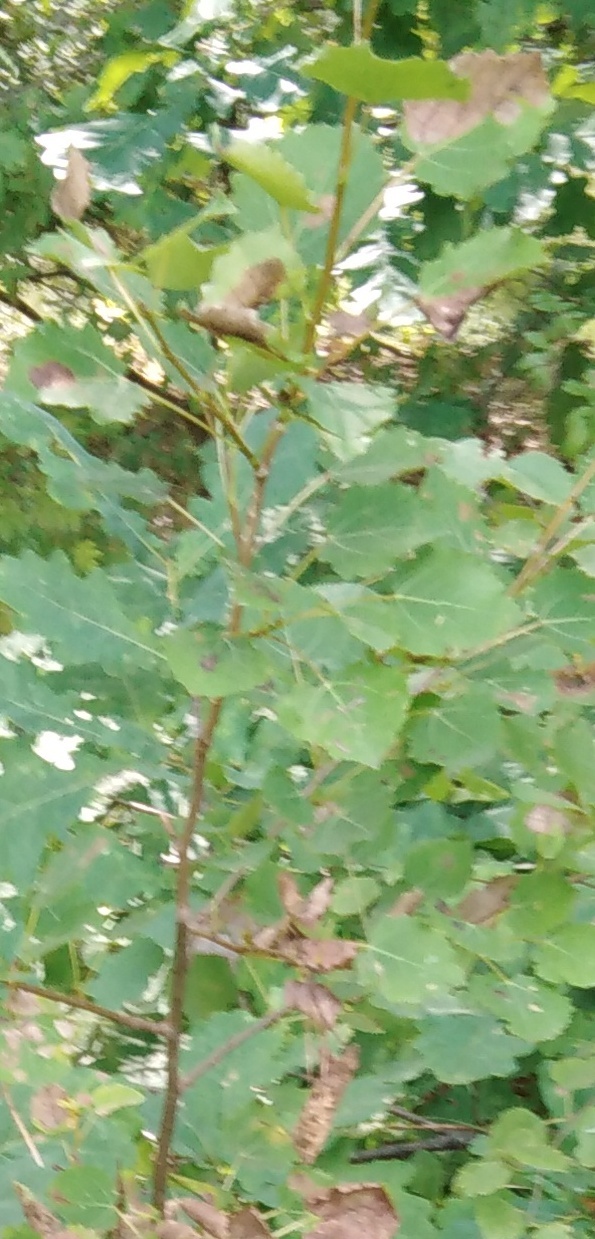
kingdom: Plantae
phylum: Tracheophyta
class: Magnoliopsida
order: Malpighiales
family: Salicaceae
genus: Populus
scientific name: Populus tremula
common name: European aspen
